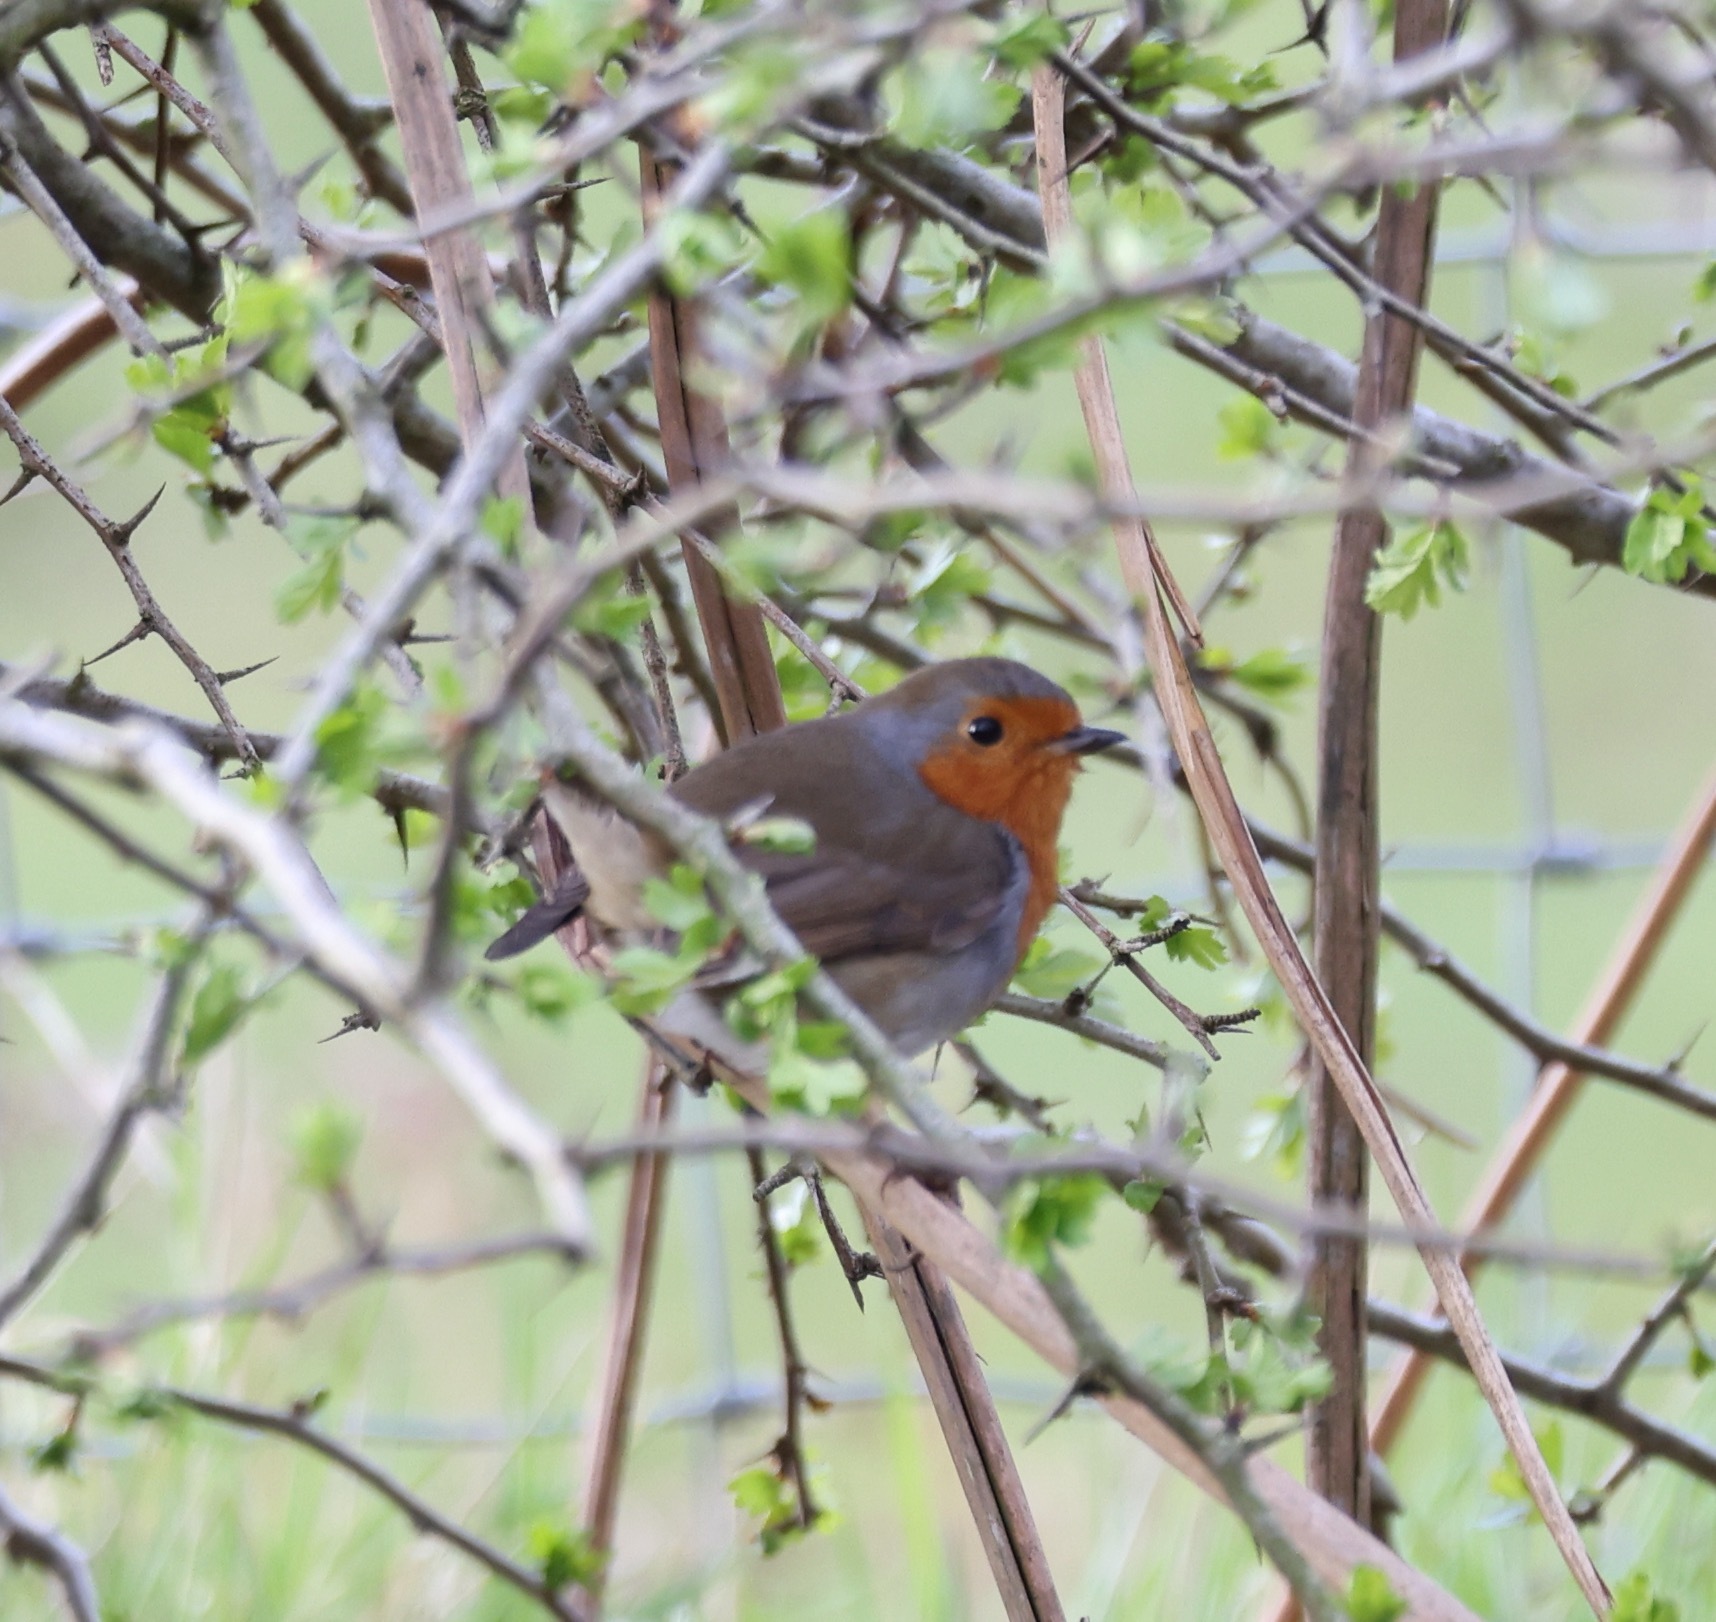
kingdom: Animalia
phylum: Chordata
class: Aves
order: Passeriformes
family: Muscicapidae
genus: Erithacus
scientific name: Erithacus rubecula
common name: European robin
